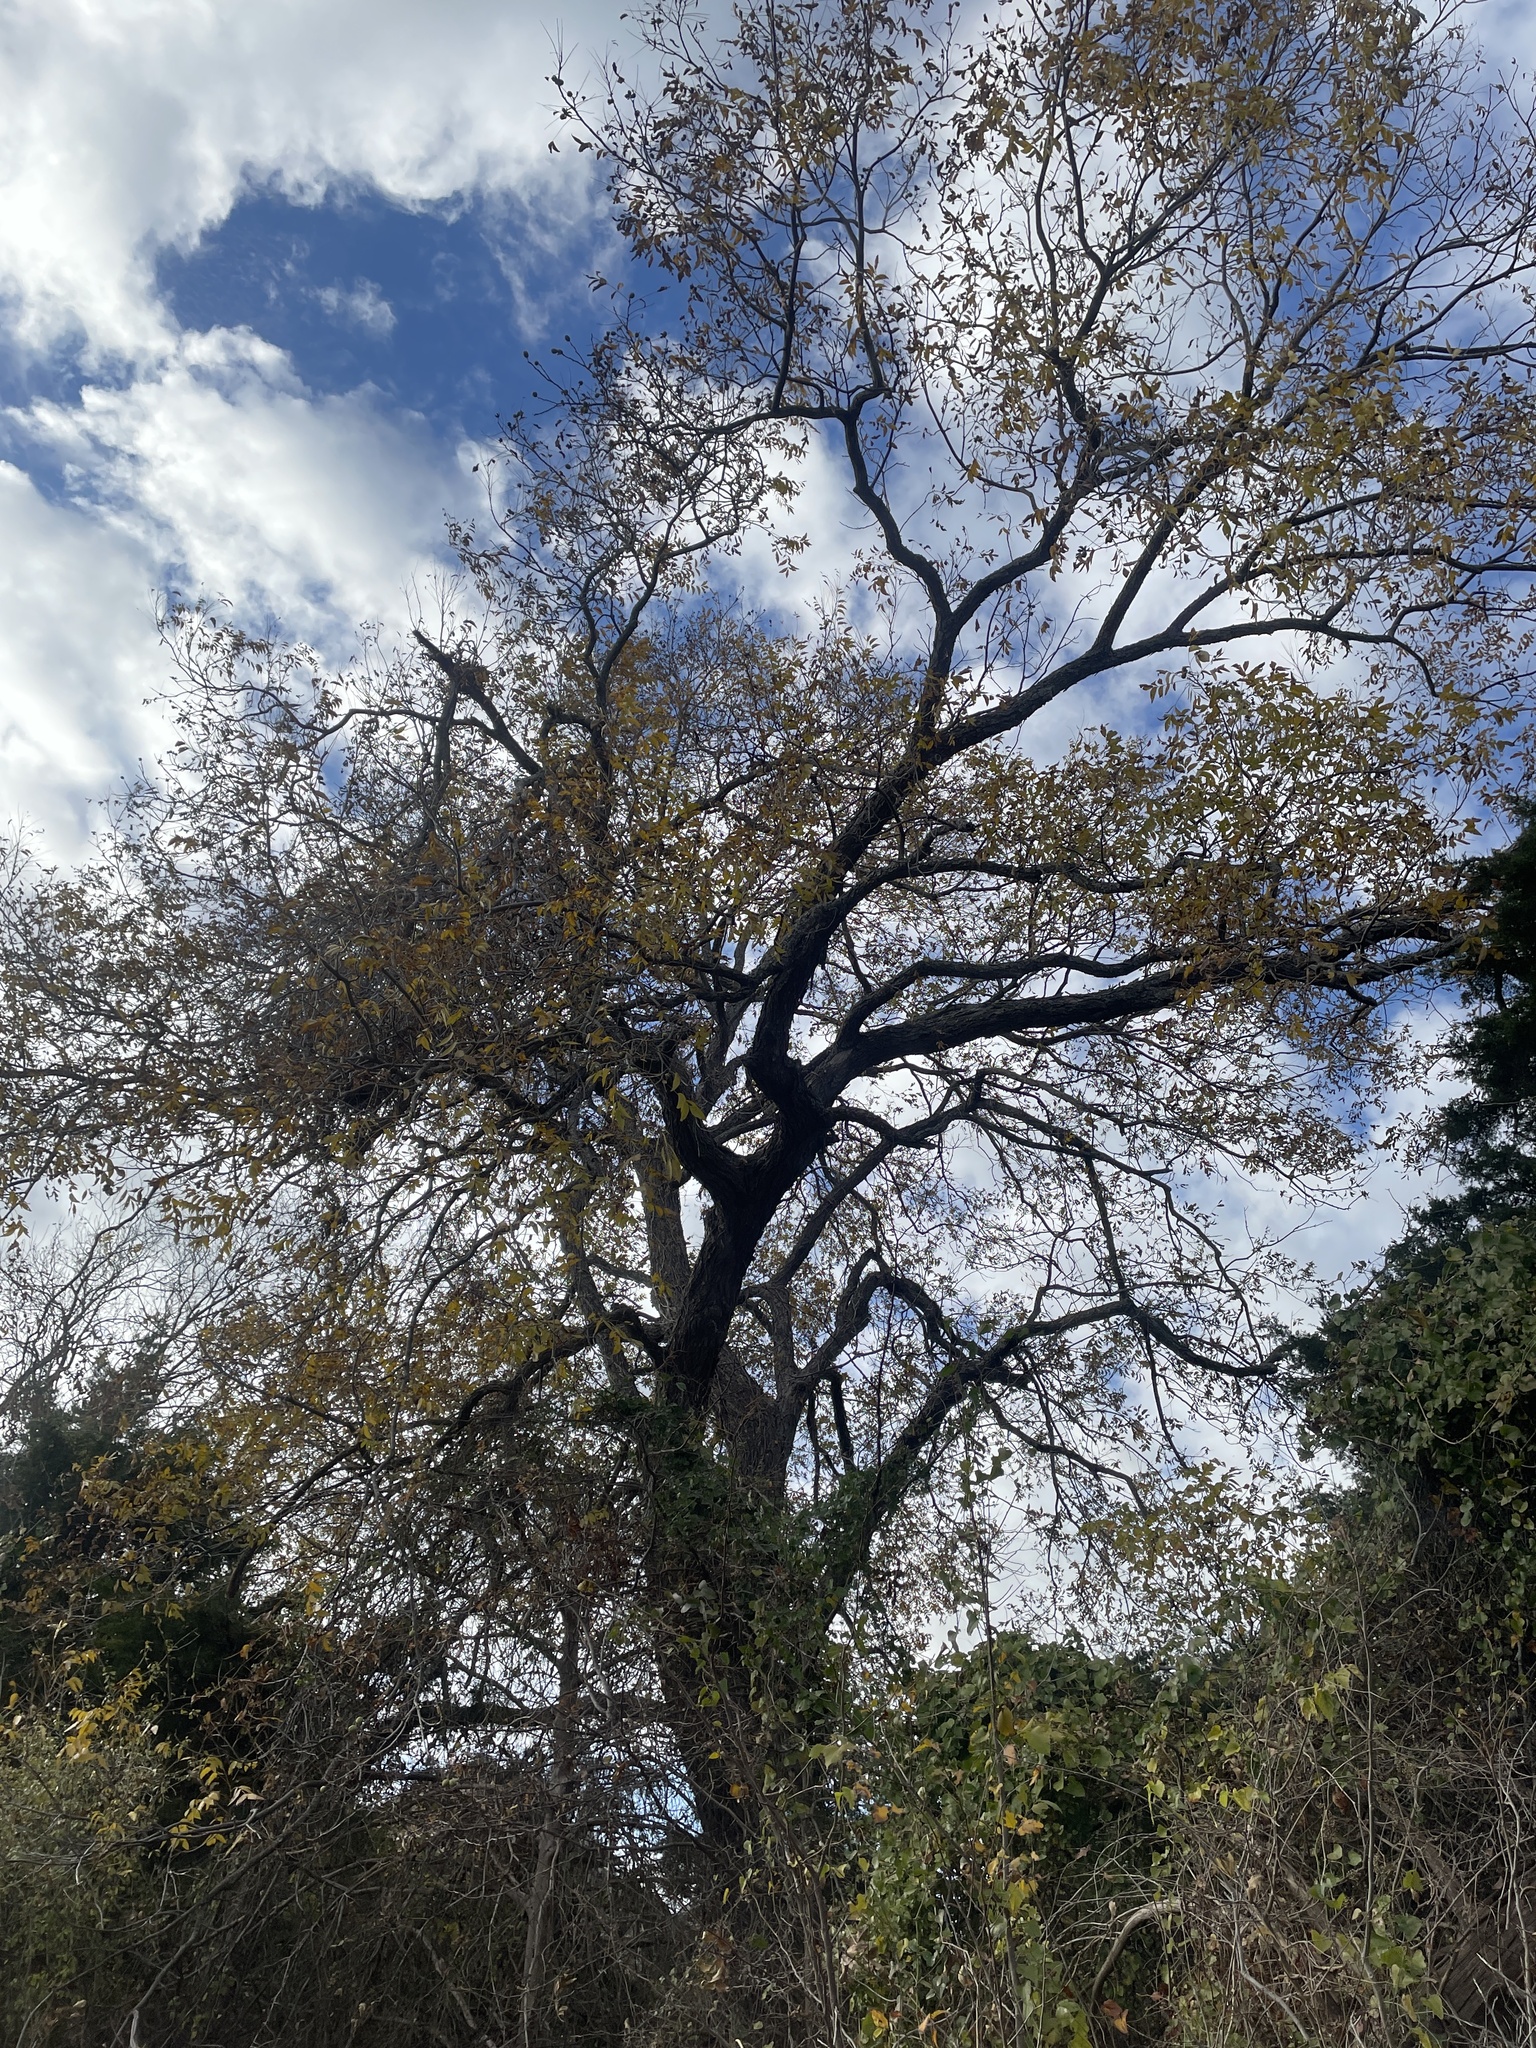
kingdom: Plantae
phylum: Tracheophyta
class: Magnoliopsida
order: Fagales
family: Juglandaceae
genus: Carya
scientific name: Carya illinoinensis
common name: Pecan
